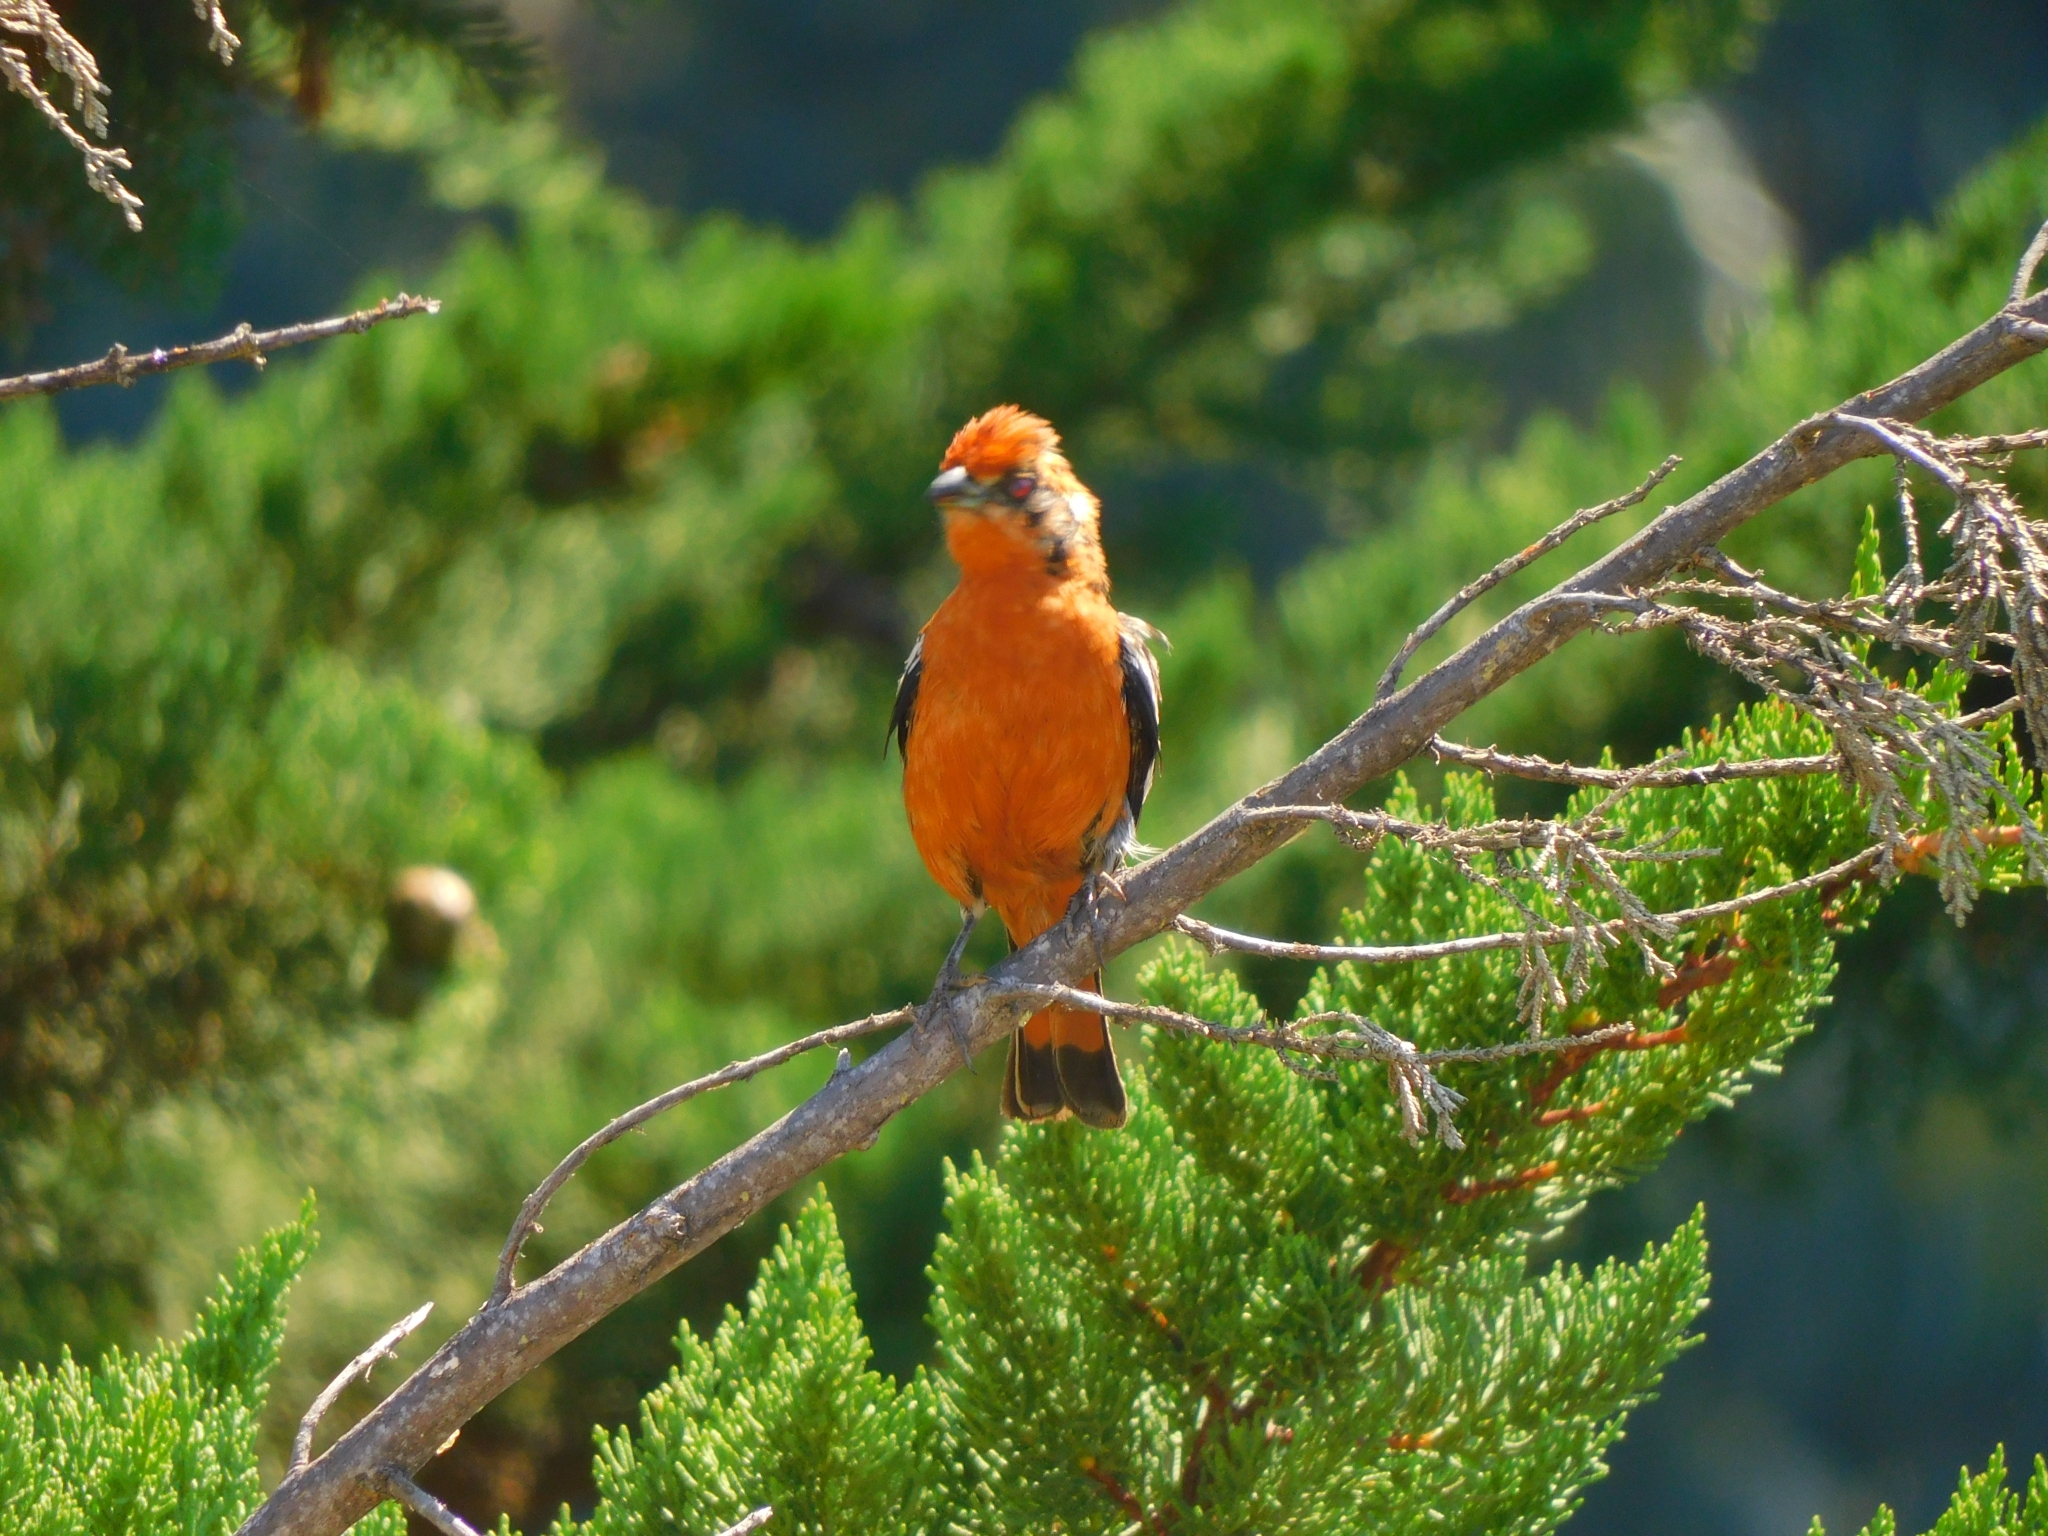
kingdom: Animalia
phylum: Chordata
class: Aves
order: Passeriformes
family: Cotingidae
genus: Phytotoma
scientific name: Phytotoma rara
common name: Rufous-tailed plantcutter
